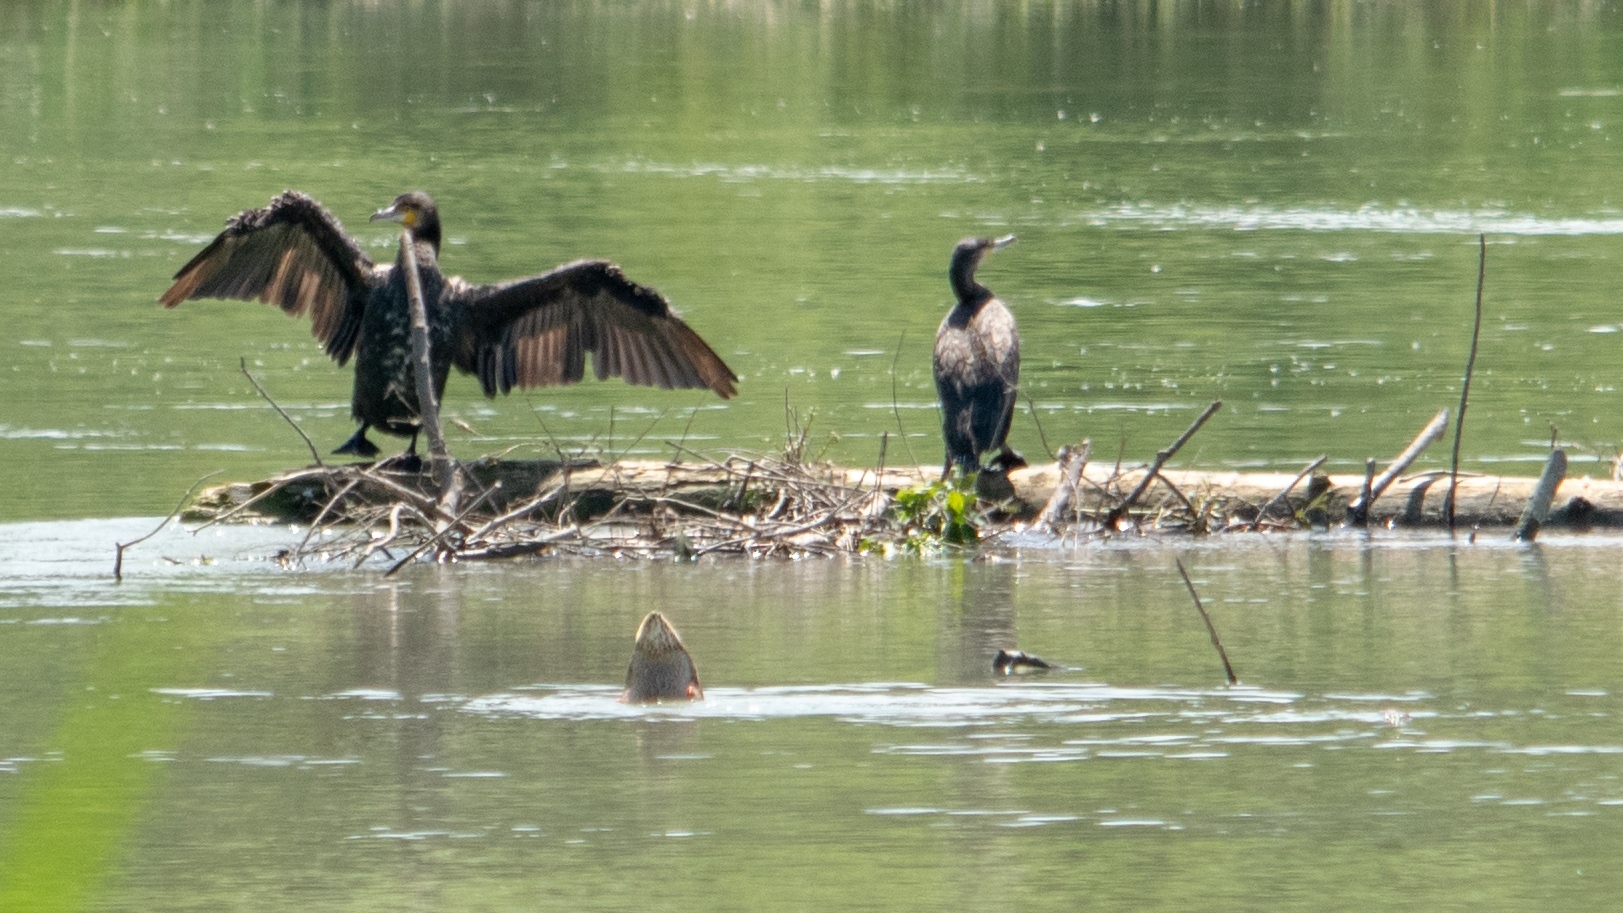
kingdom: Animalia
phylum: Chordata
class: Aves
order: Suliformes
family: Phalacrocoracidae
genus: Phalacrocorax
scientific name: Phalacrocorax carbo
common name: Great cormorant
